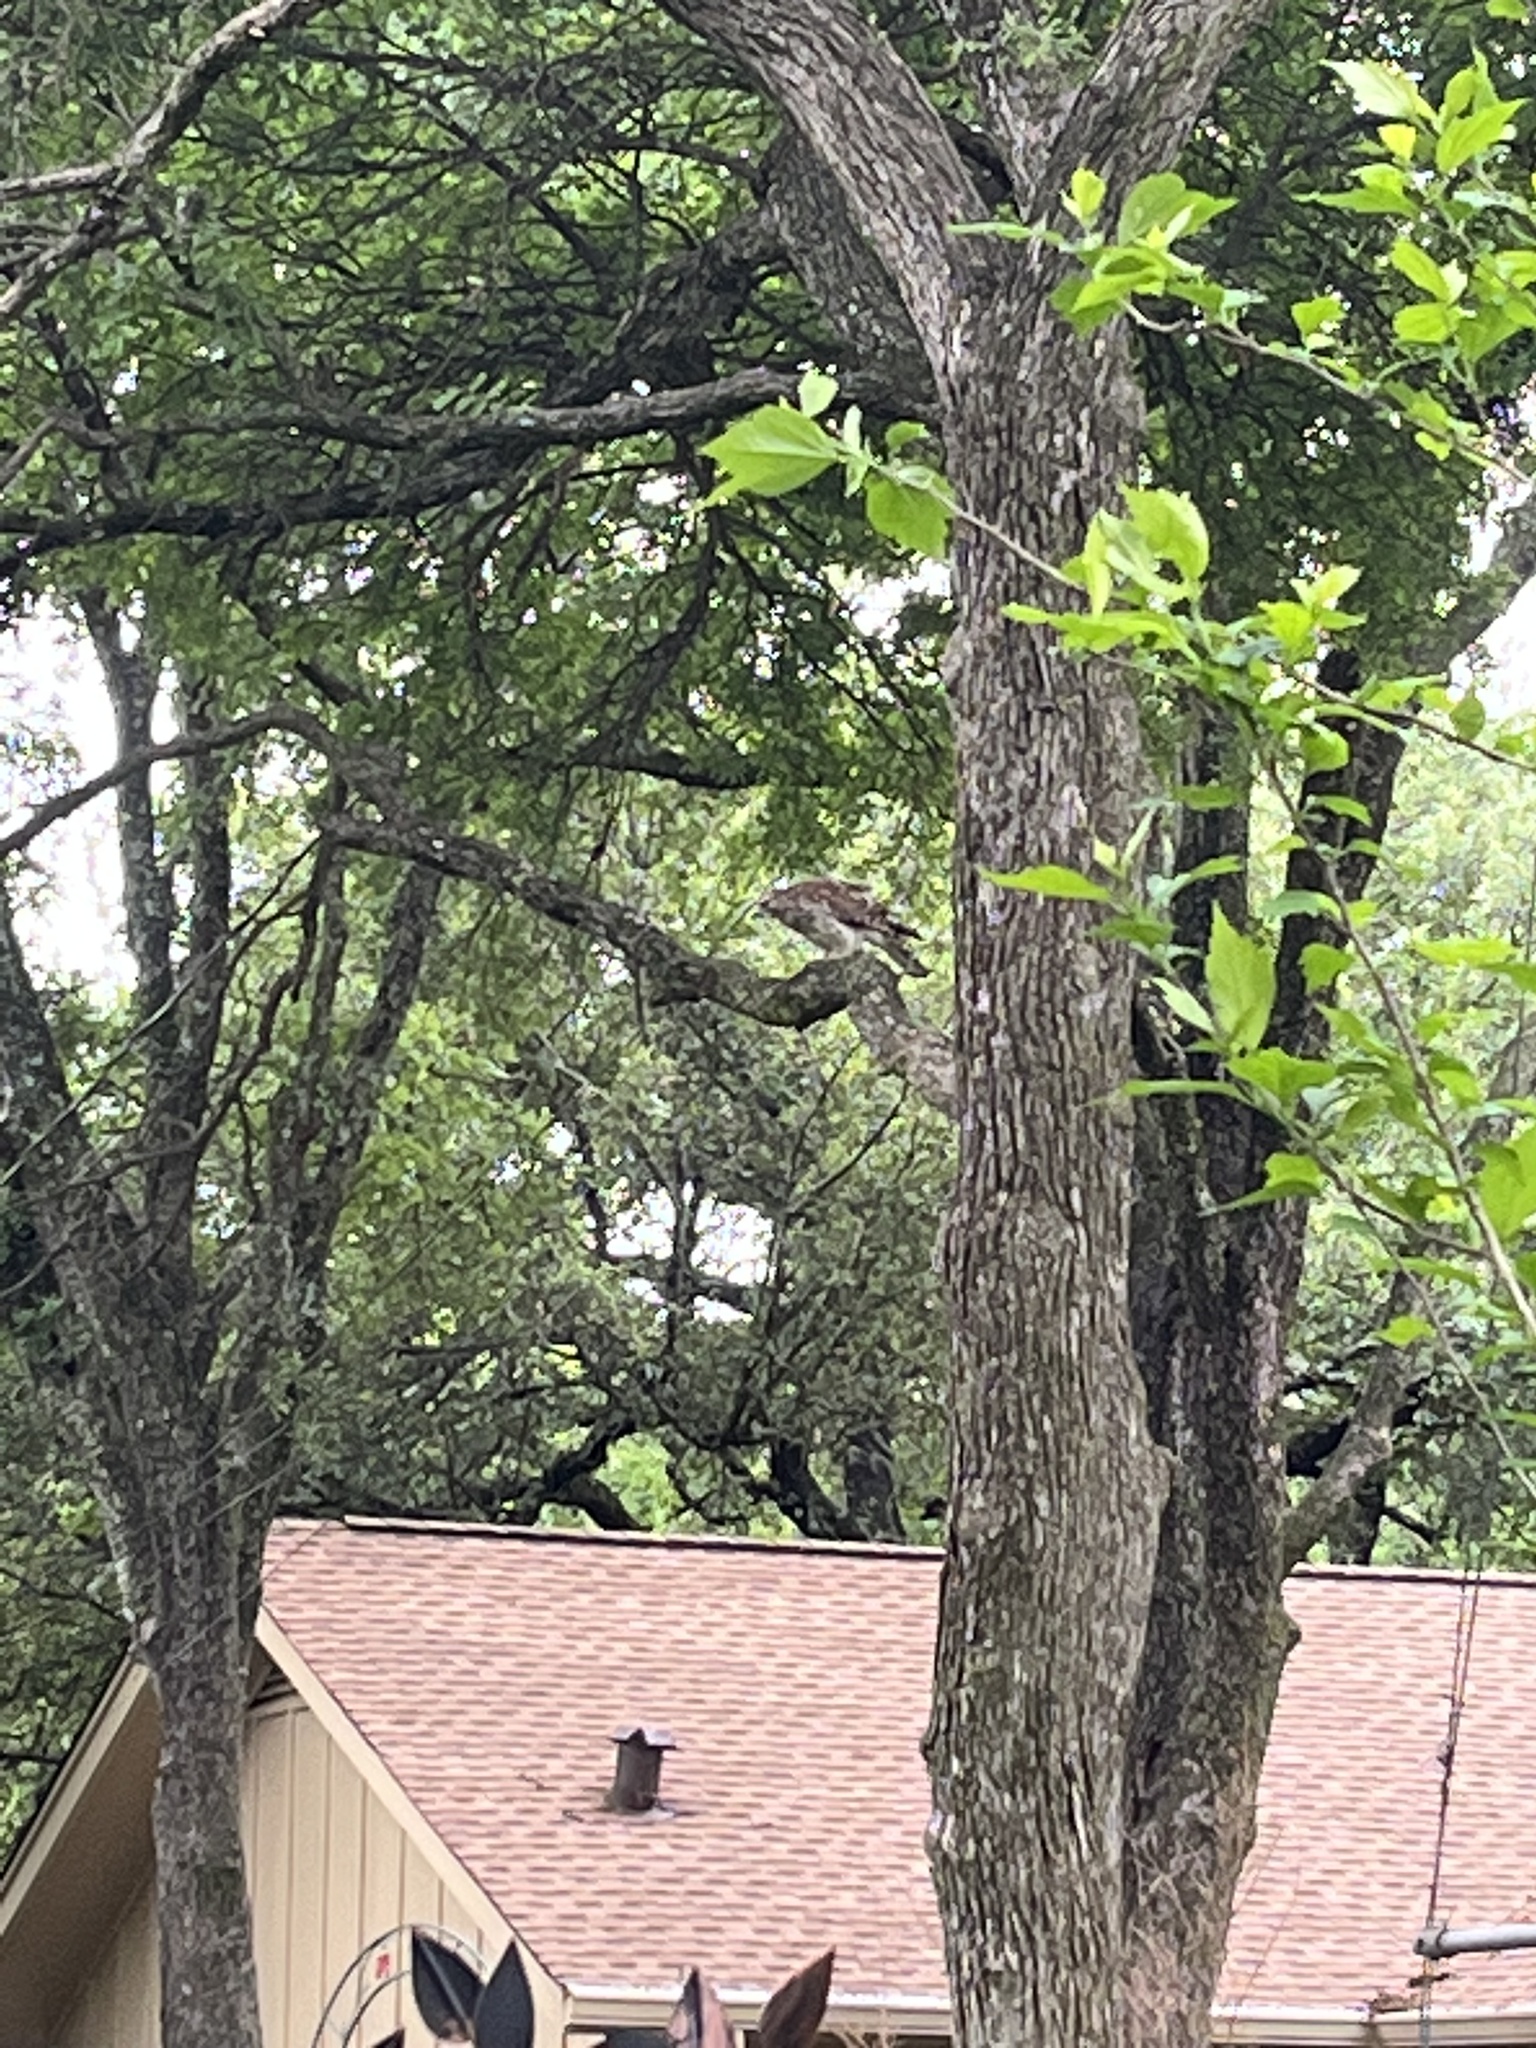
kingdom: Animalia
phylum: Chordata
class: Aves
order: Accipitriformes
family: Accipitridae
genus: Accipiter
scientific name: Accipiter cooperii
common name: Cooper's hawk
